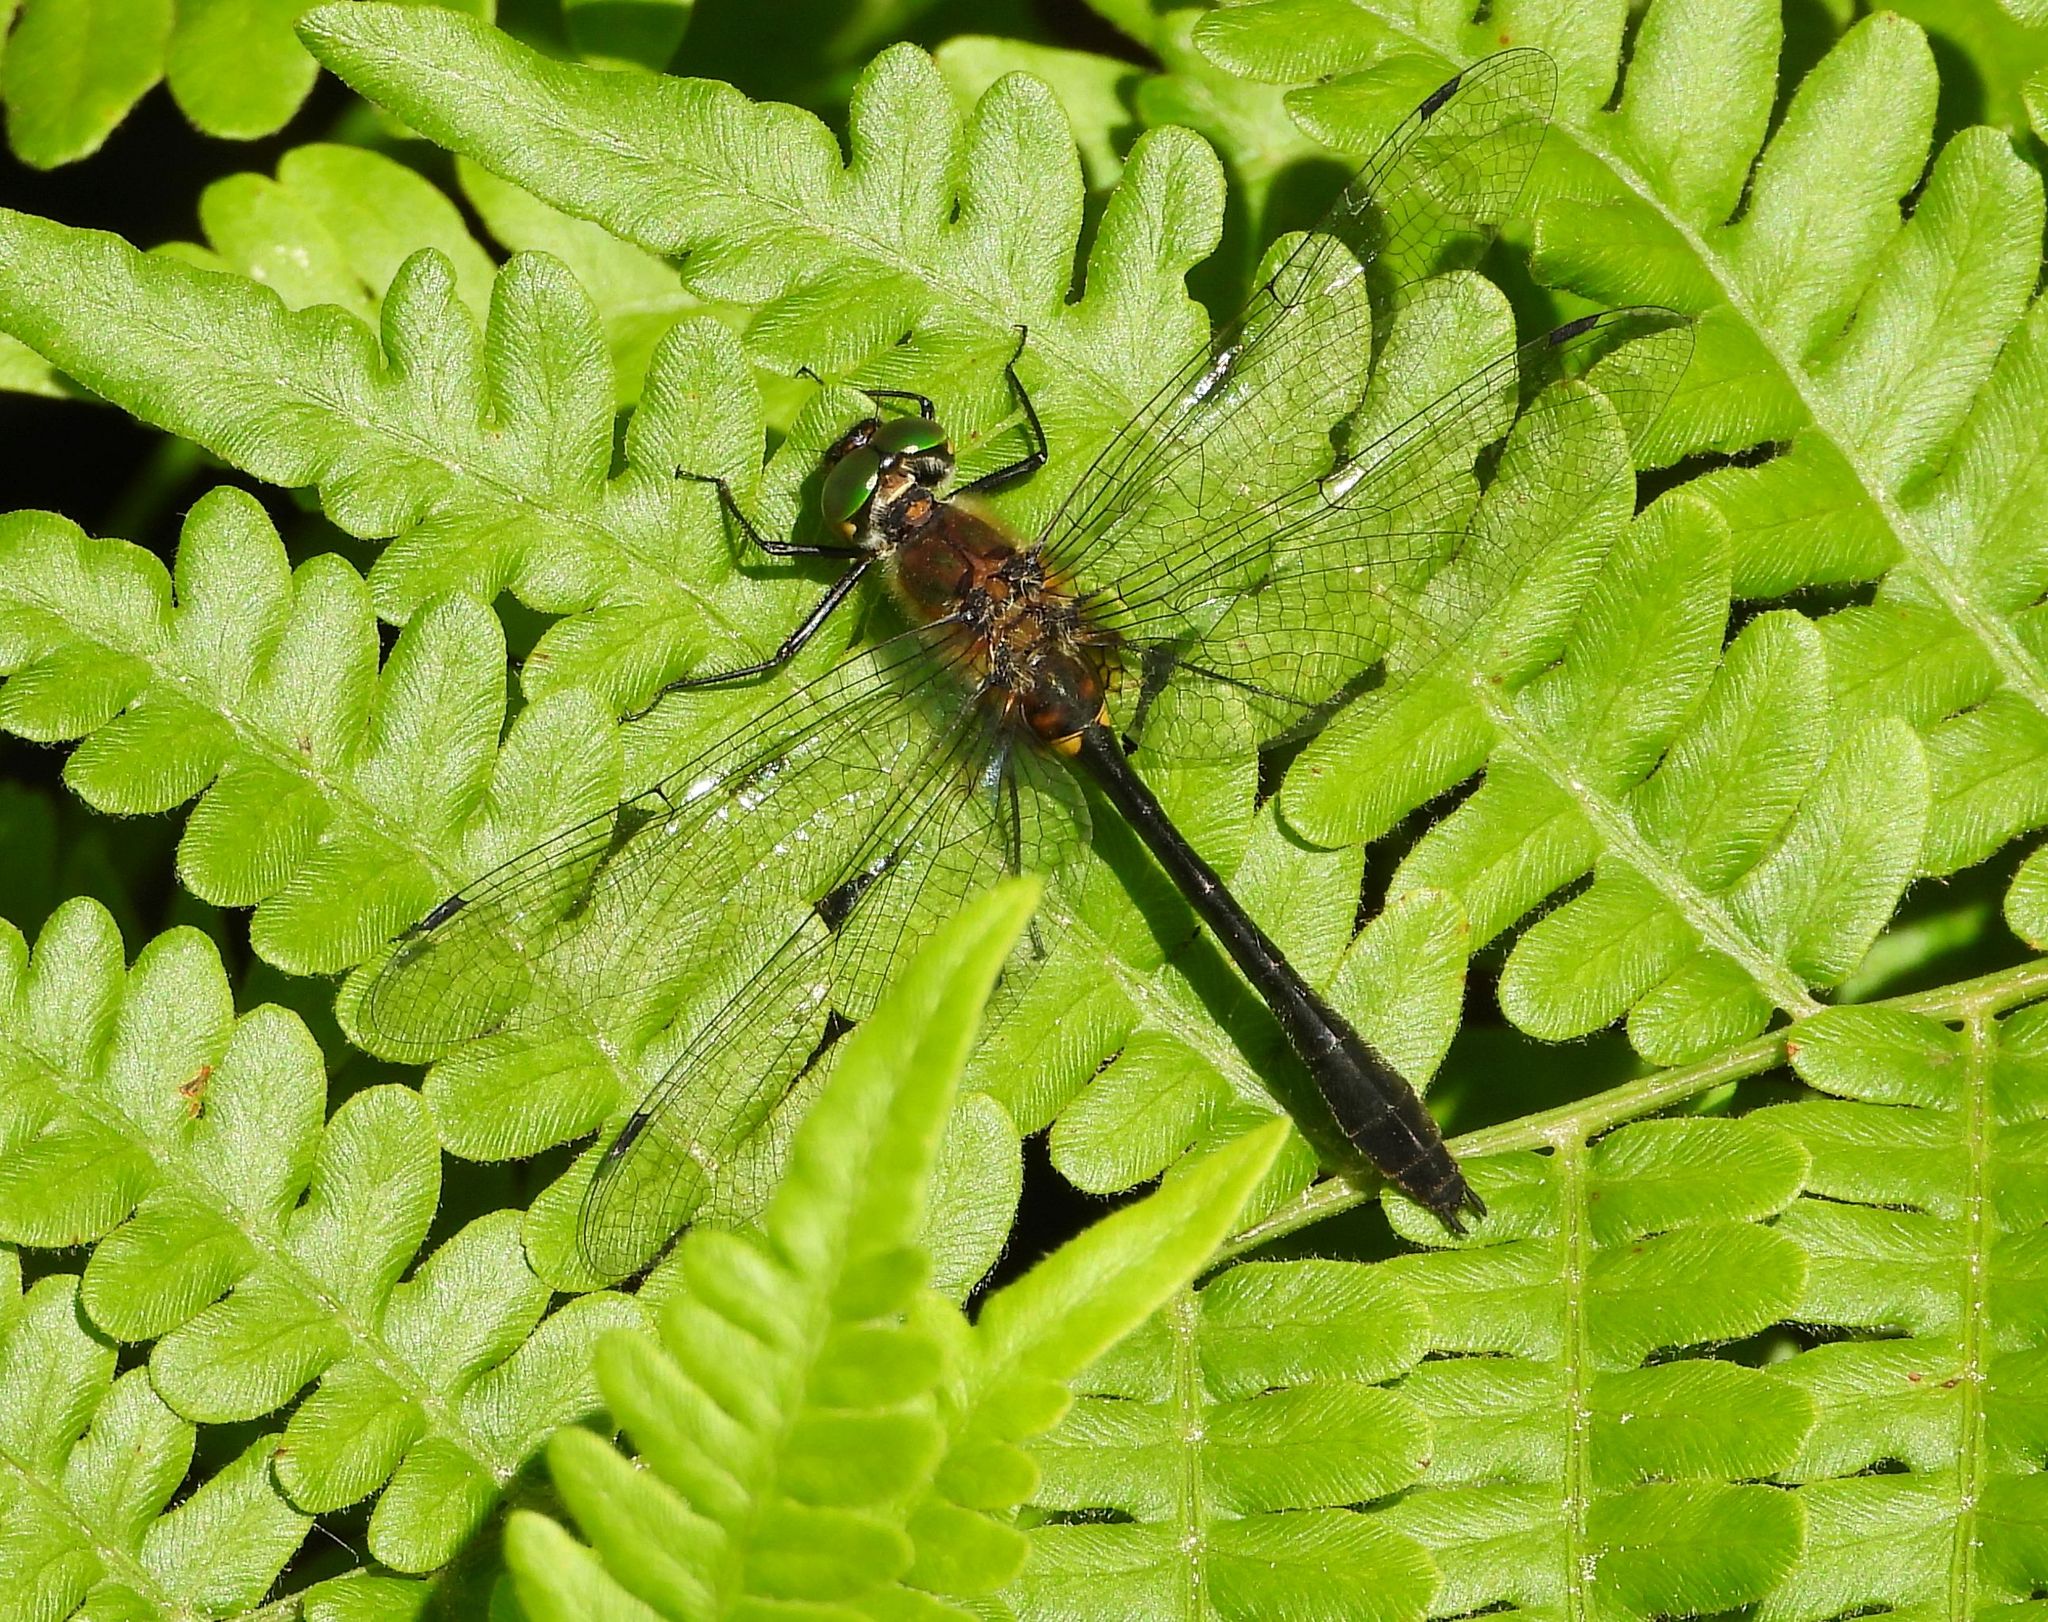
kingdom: Animalia
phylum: Arthropoda
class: Insecta
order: Odonata
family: Corduliidae
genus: Dorocordulia
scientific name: Dorocordulia libera
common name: Racket-tailed emerald
